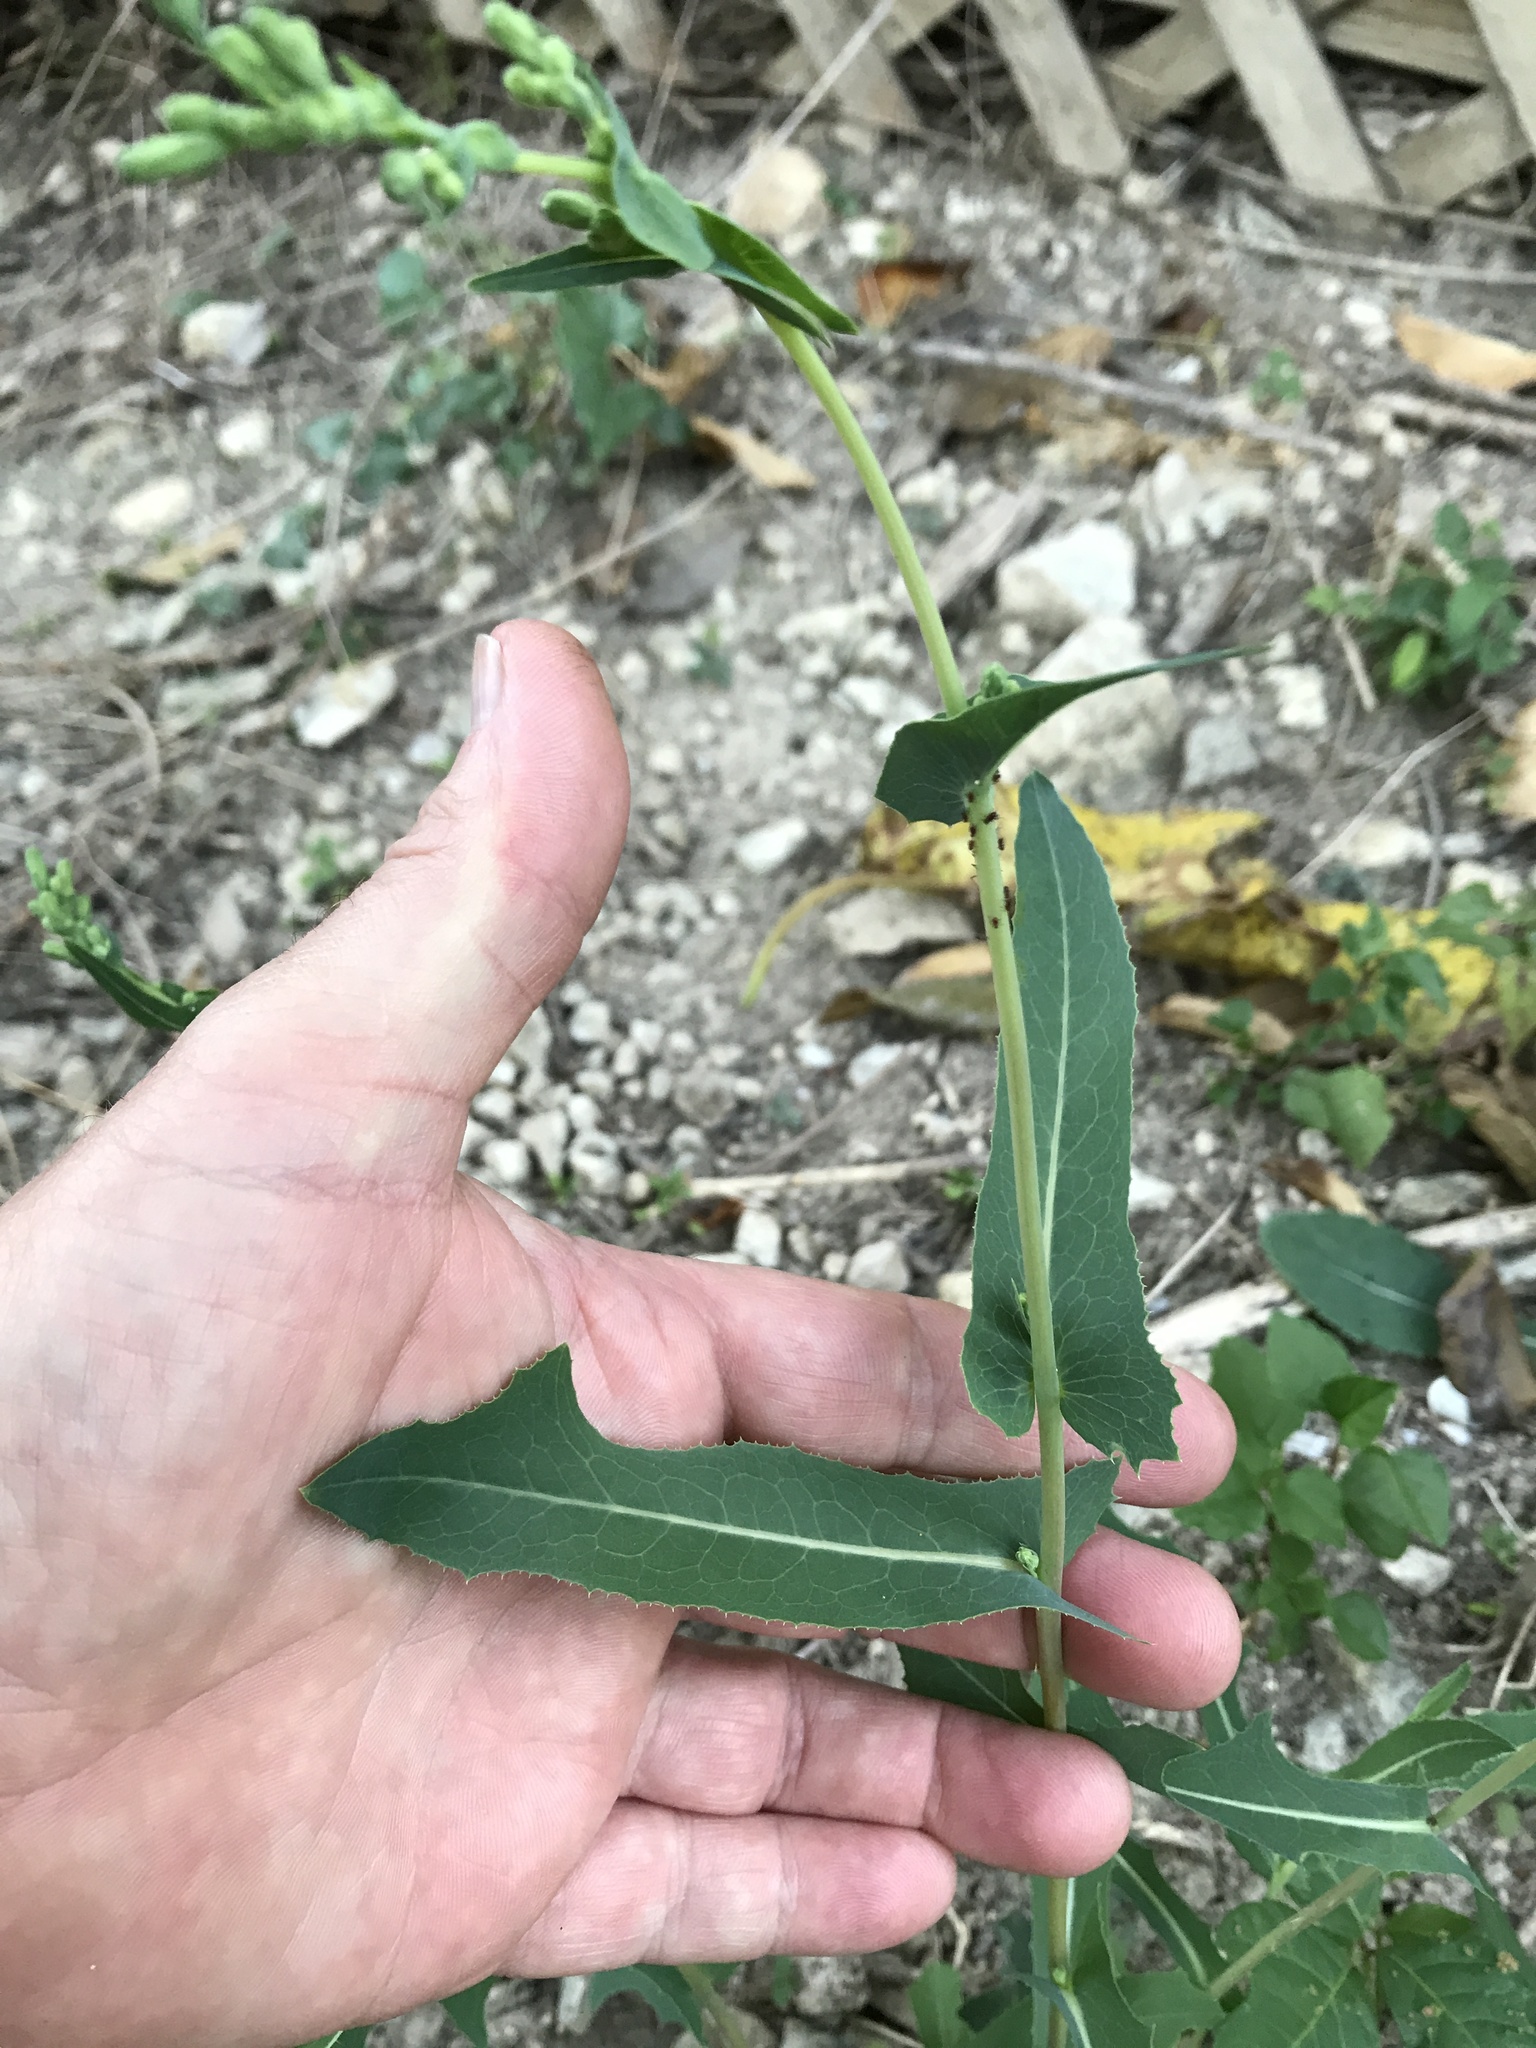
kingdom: Plantae
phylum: Tracheophyta
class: Magnoliopsida
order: Asterales
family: Asteraceae
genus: Lactuca
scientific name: Lactuca serriola
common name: Prickly lettuce
